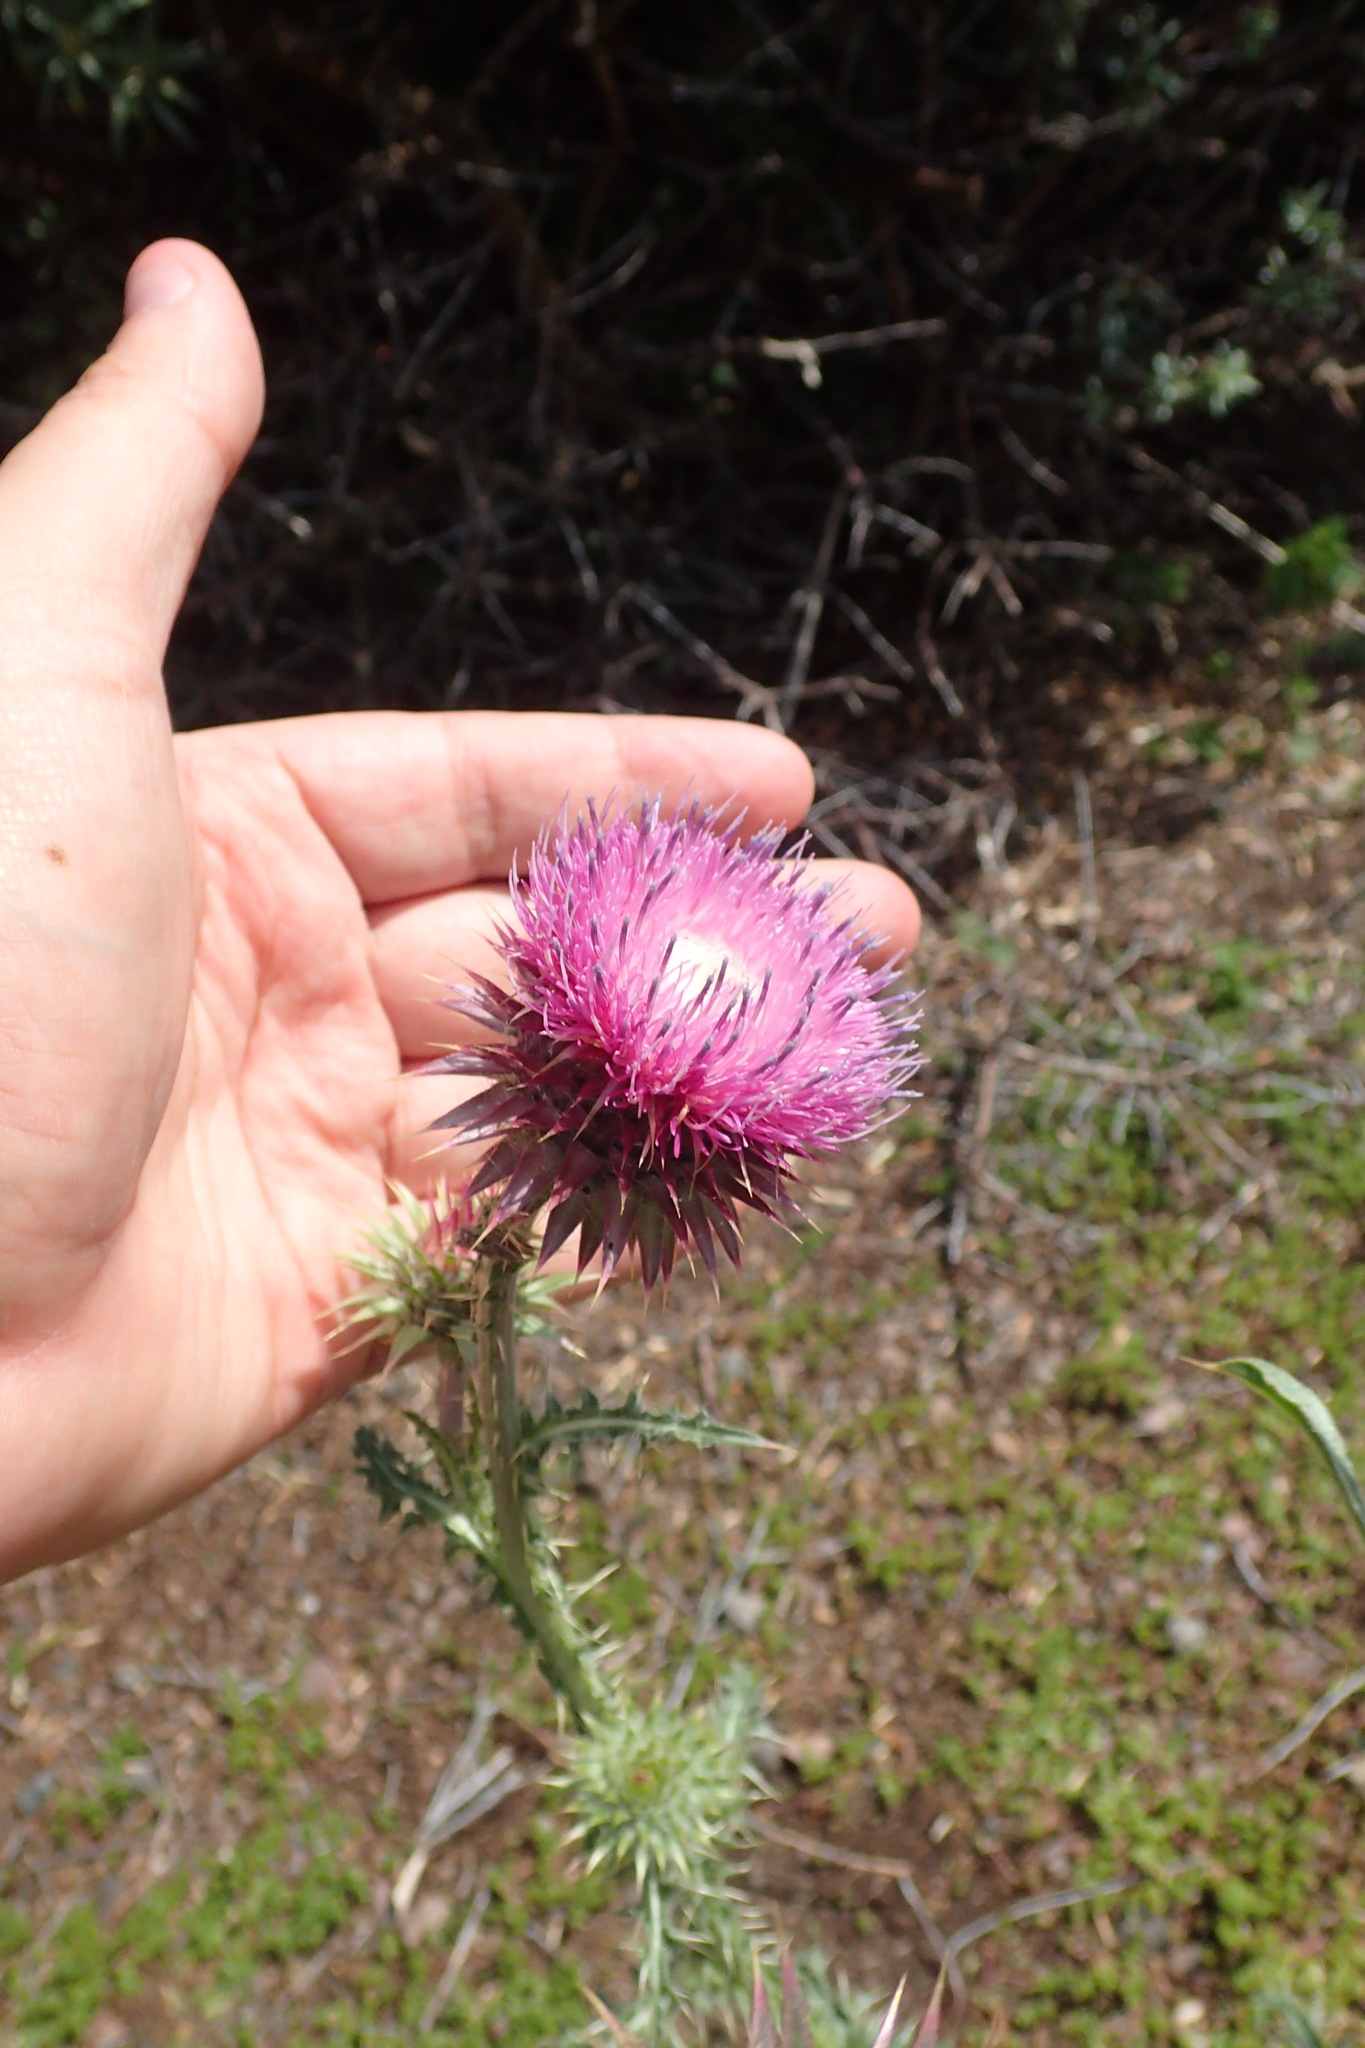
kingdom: Plantae
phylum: Tracheophyta
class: Magnoliopsida
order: Asterales
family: Asteraceae
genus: Carduus
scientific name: Carduus nutans
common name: Musk thistle
